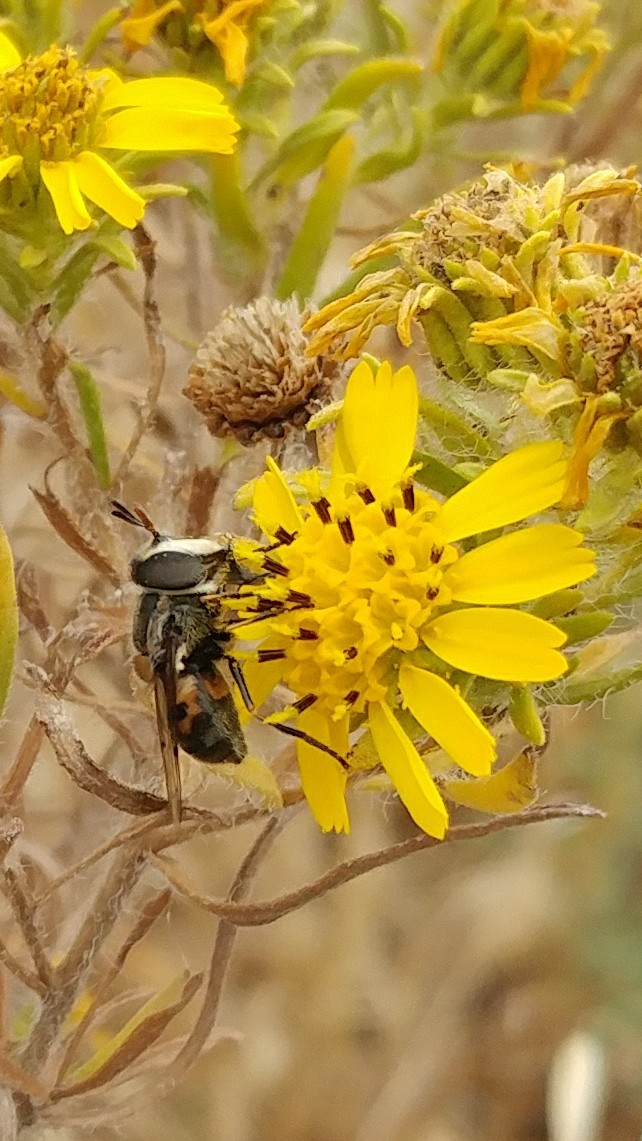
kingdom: Animalia
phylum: Arthropoda
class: Insecta
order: Diptera
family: Syrphidae
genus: Copestylum
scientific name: Copestylum lentum
